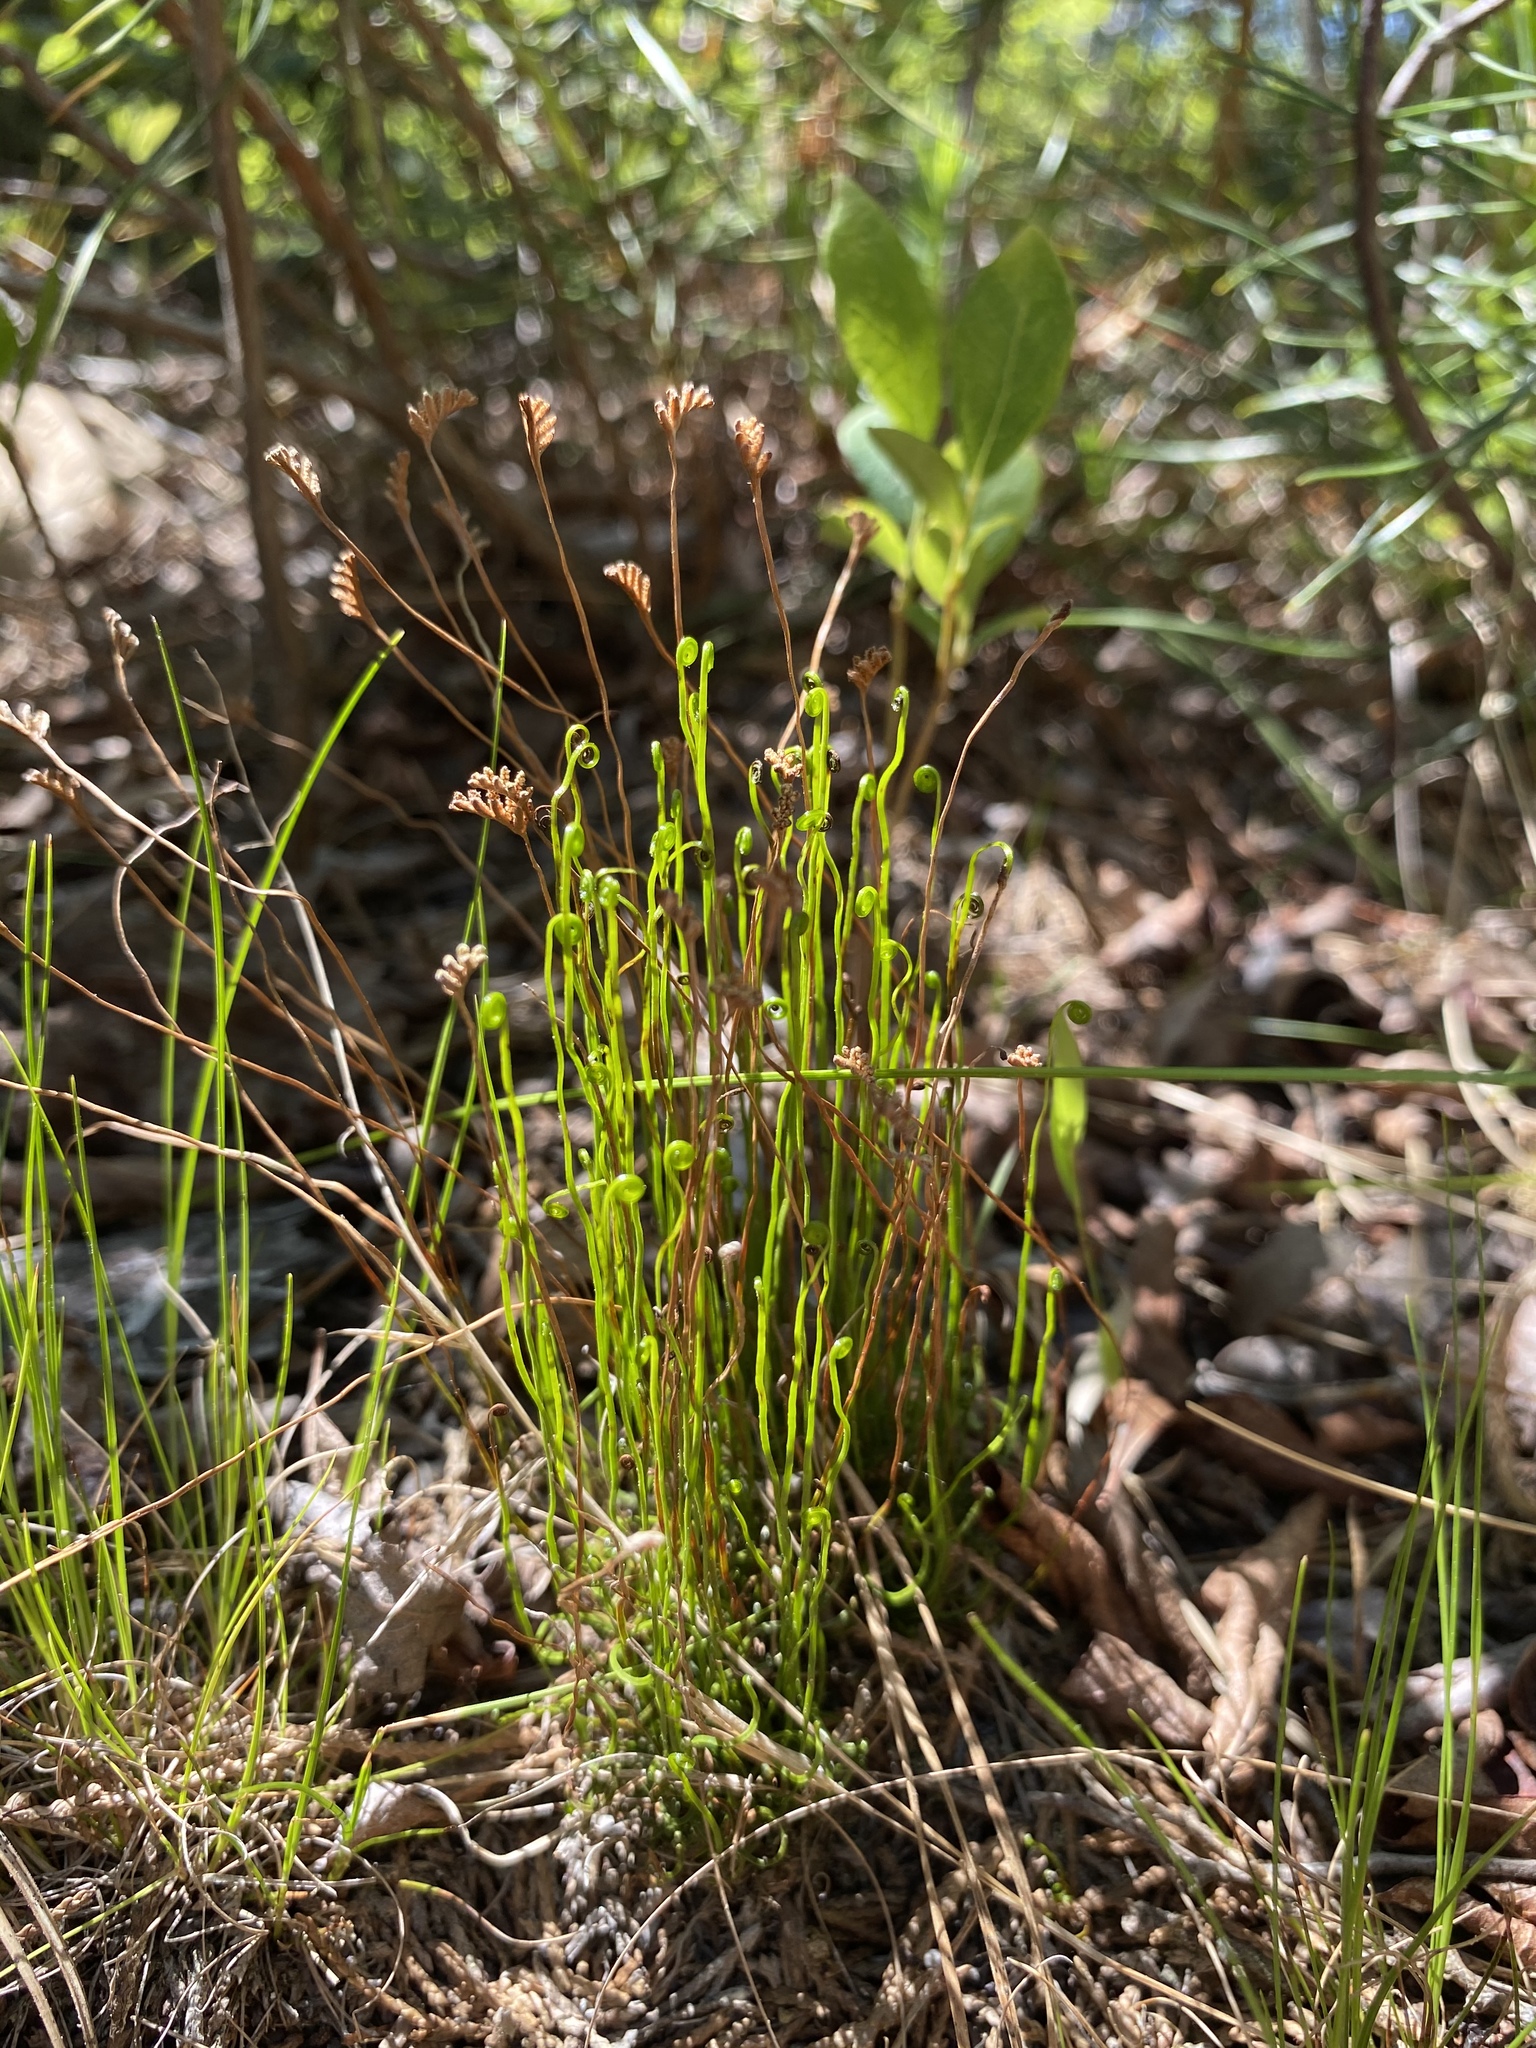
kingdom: Plantae
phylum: Tracheophyta
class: Polypodiopsida
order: Schizaeales
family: Schizaeaceae
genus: Schizaea
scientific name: Schizaea pusilla
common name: Curly-grass fern
